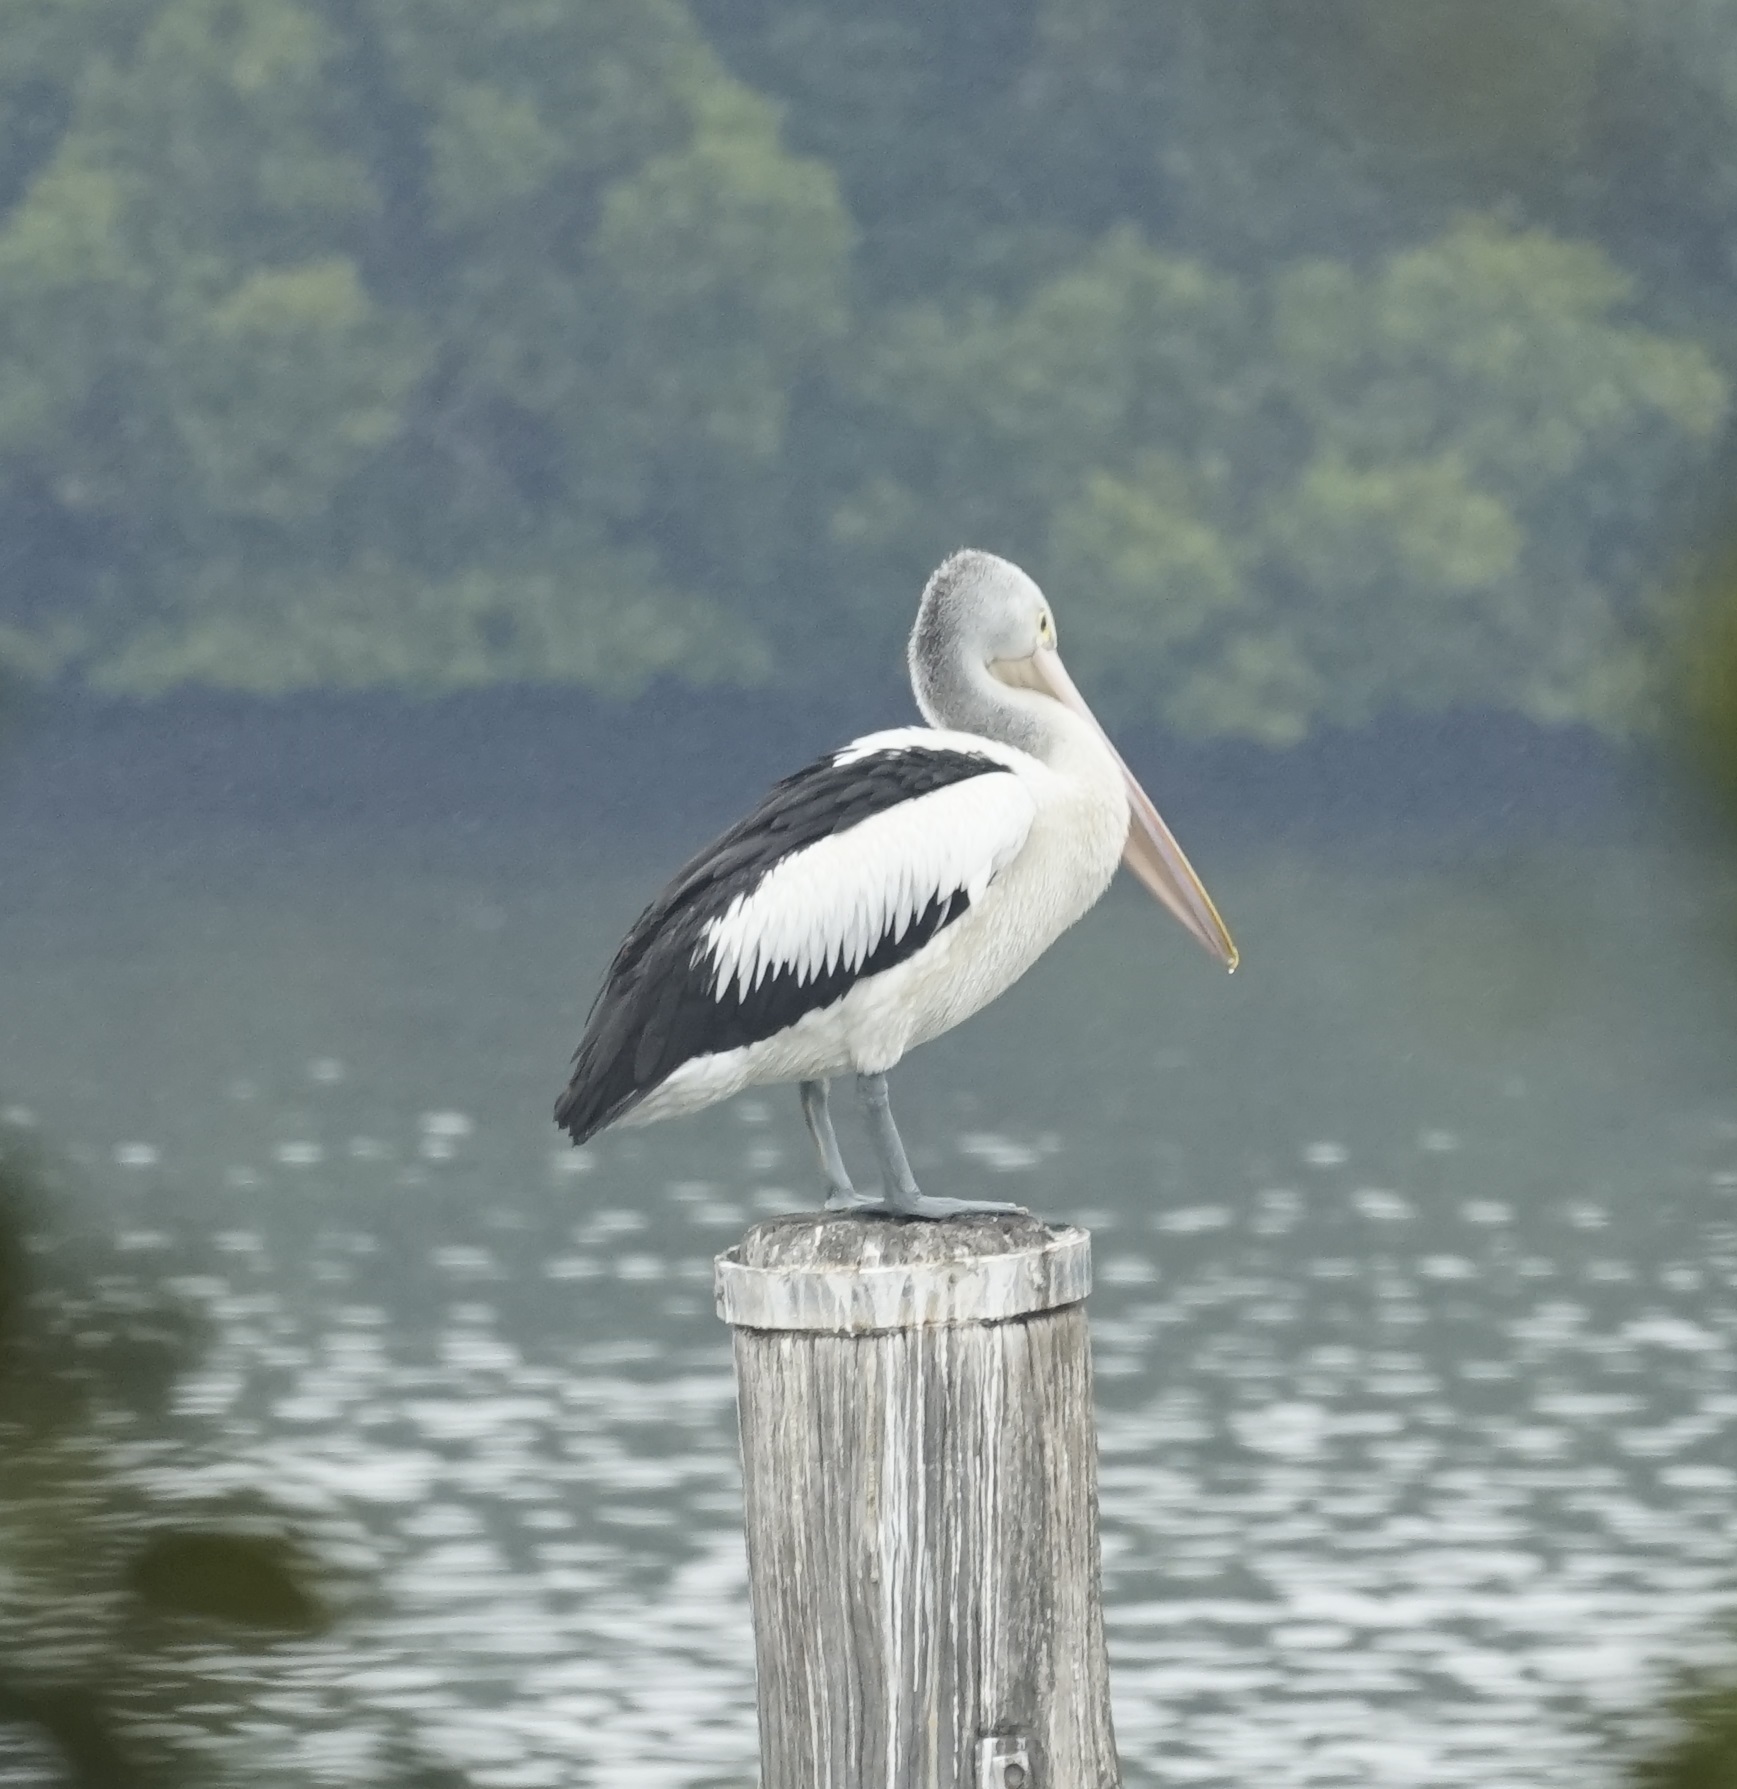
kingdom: Animalia
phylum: Chordata
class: Aves
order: Pelecaniformes
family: Pelecanidae
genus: Pelecanus
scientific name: Pelecanus conspicillatus
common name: Australian pelican
